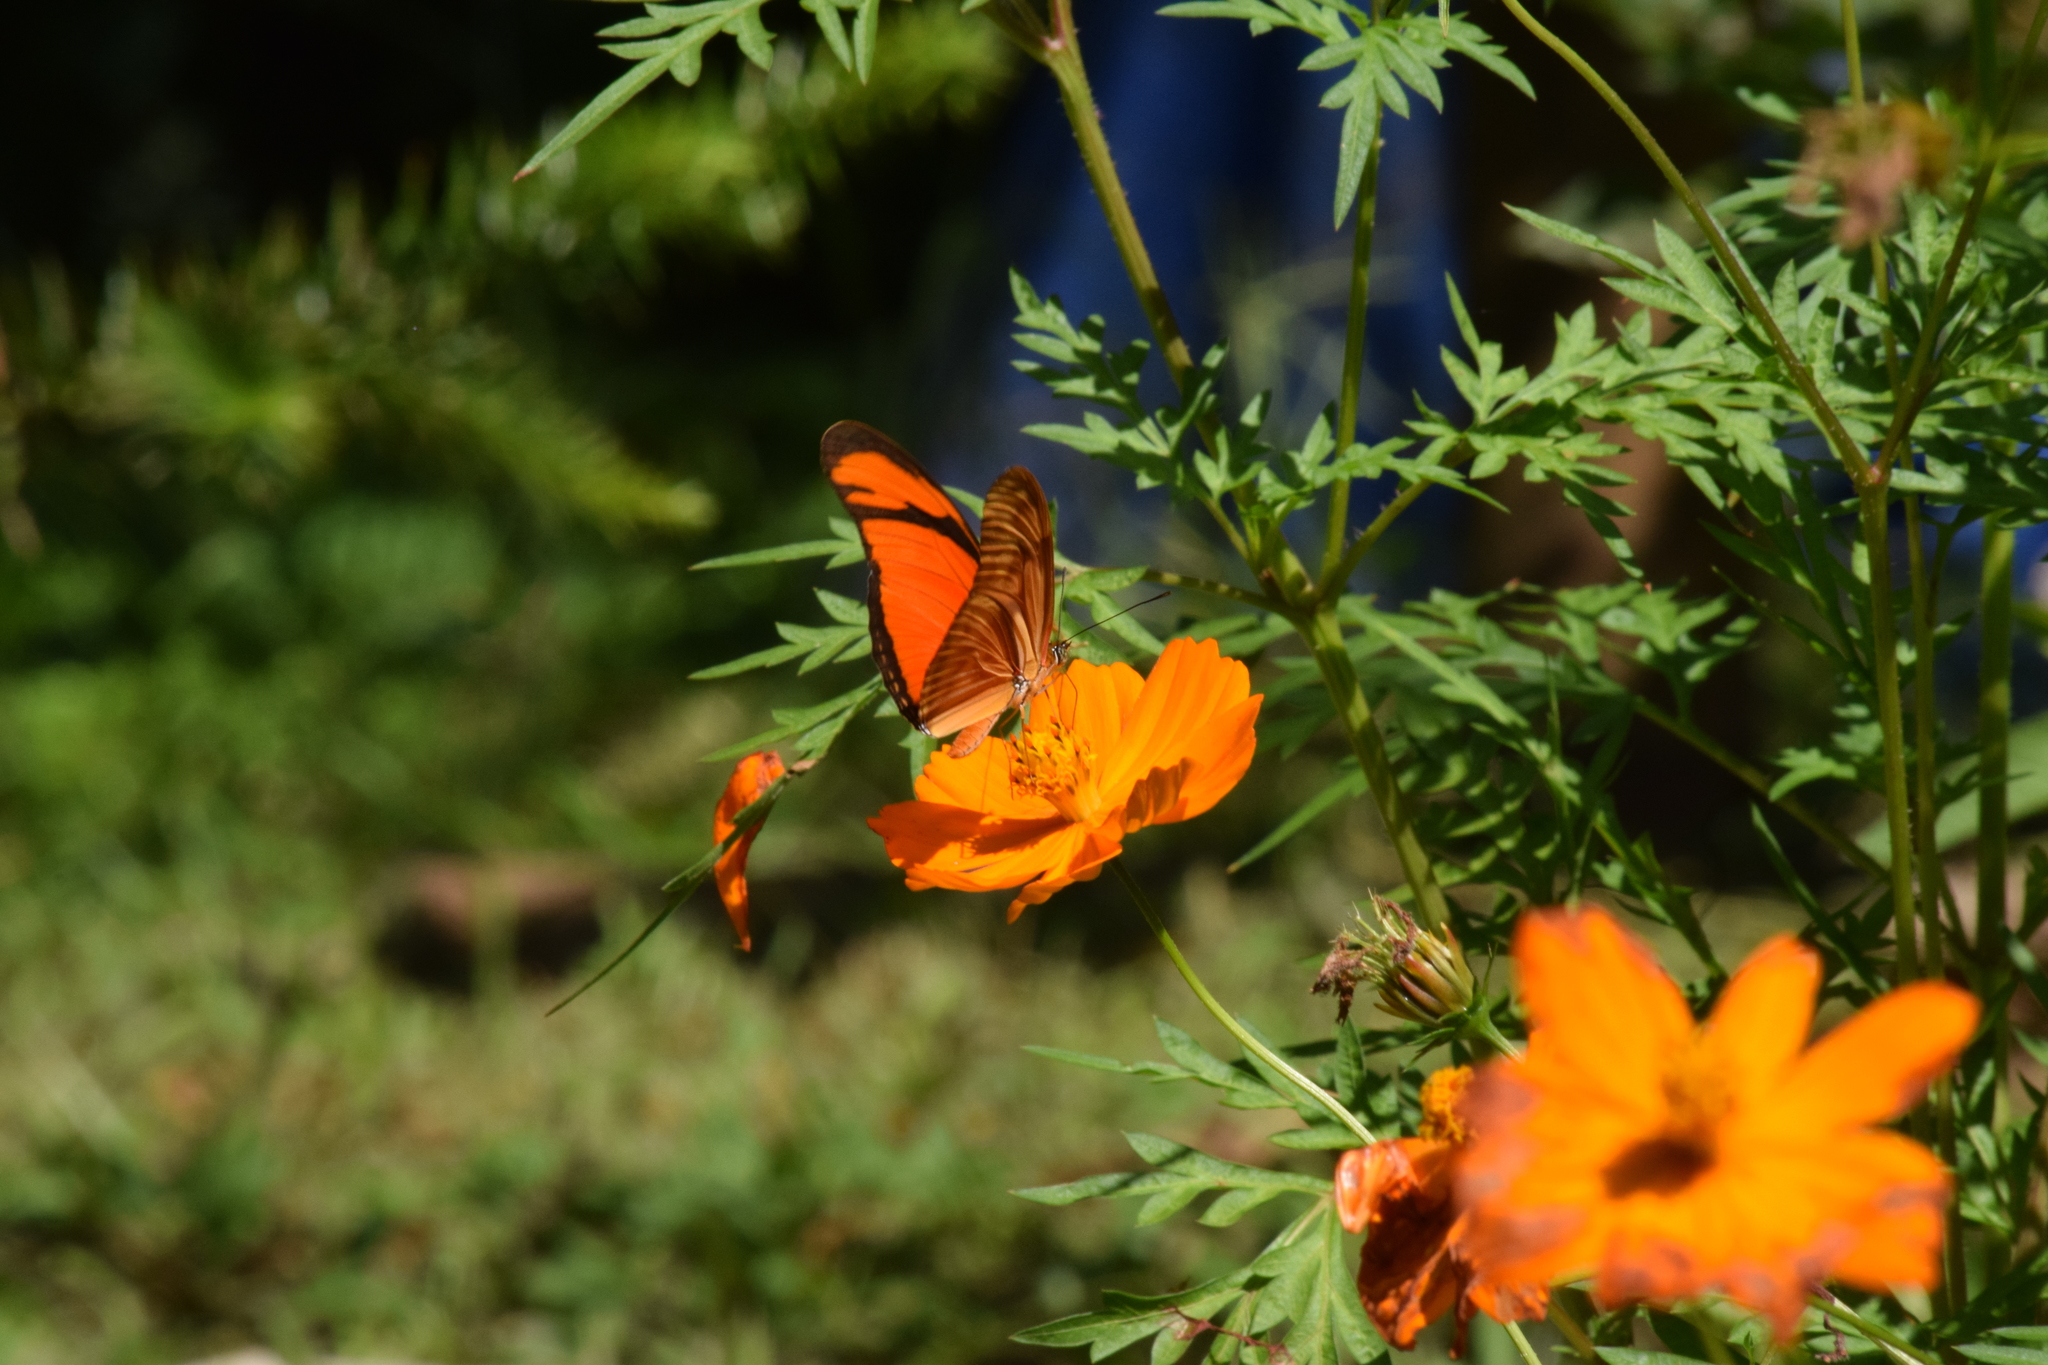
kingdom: Animalia
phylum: Arthropoda
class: Insecta
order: Lepidoptera
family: Nymphalidae
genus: Dryas
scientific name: Dryas iulia
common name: Flambeau
